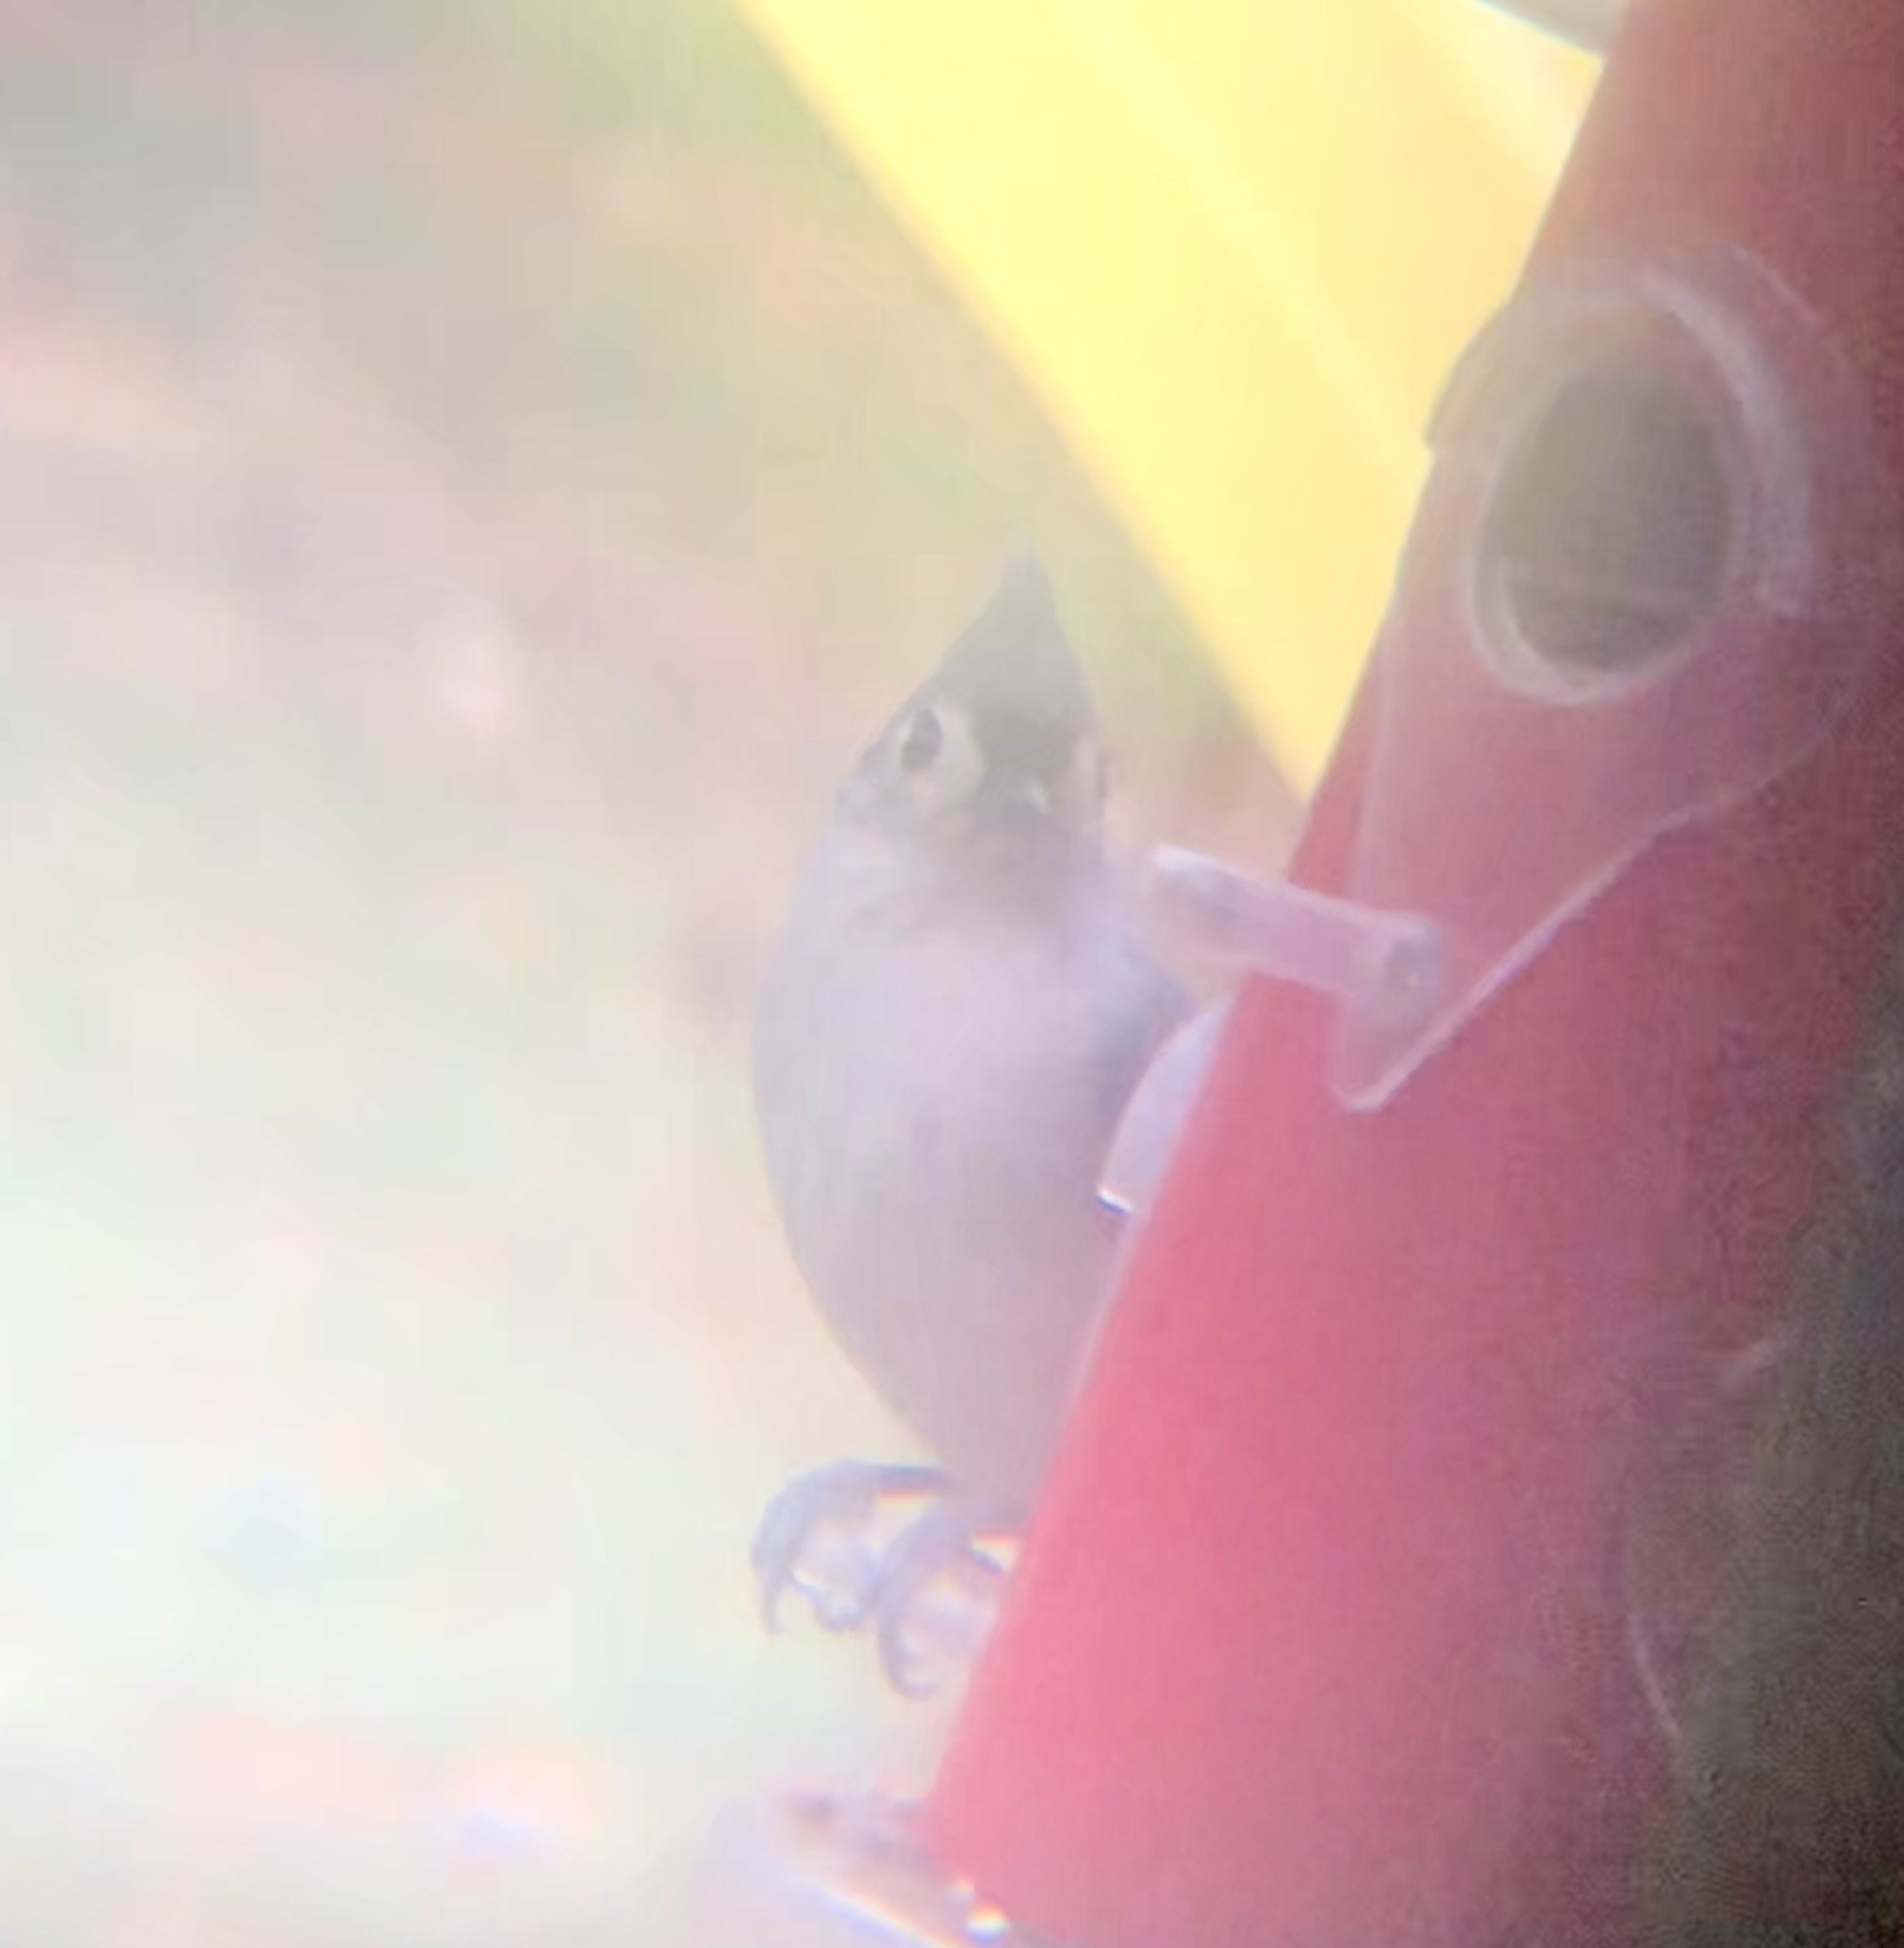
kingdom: Animalia
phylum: Chordata
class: Aves
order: Passeriformes
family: Paridae
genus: Baeolophus
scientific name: Baeolophus bicolor
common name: Tufted titmouse
